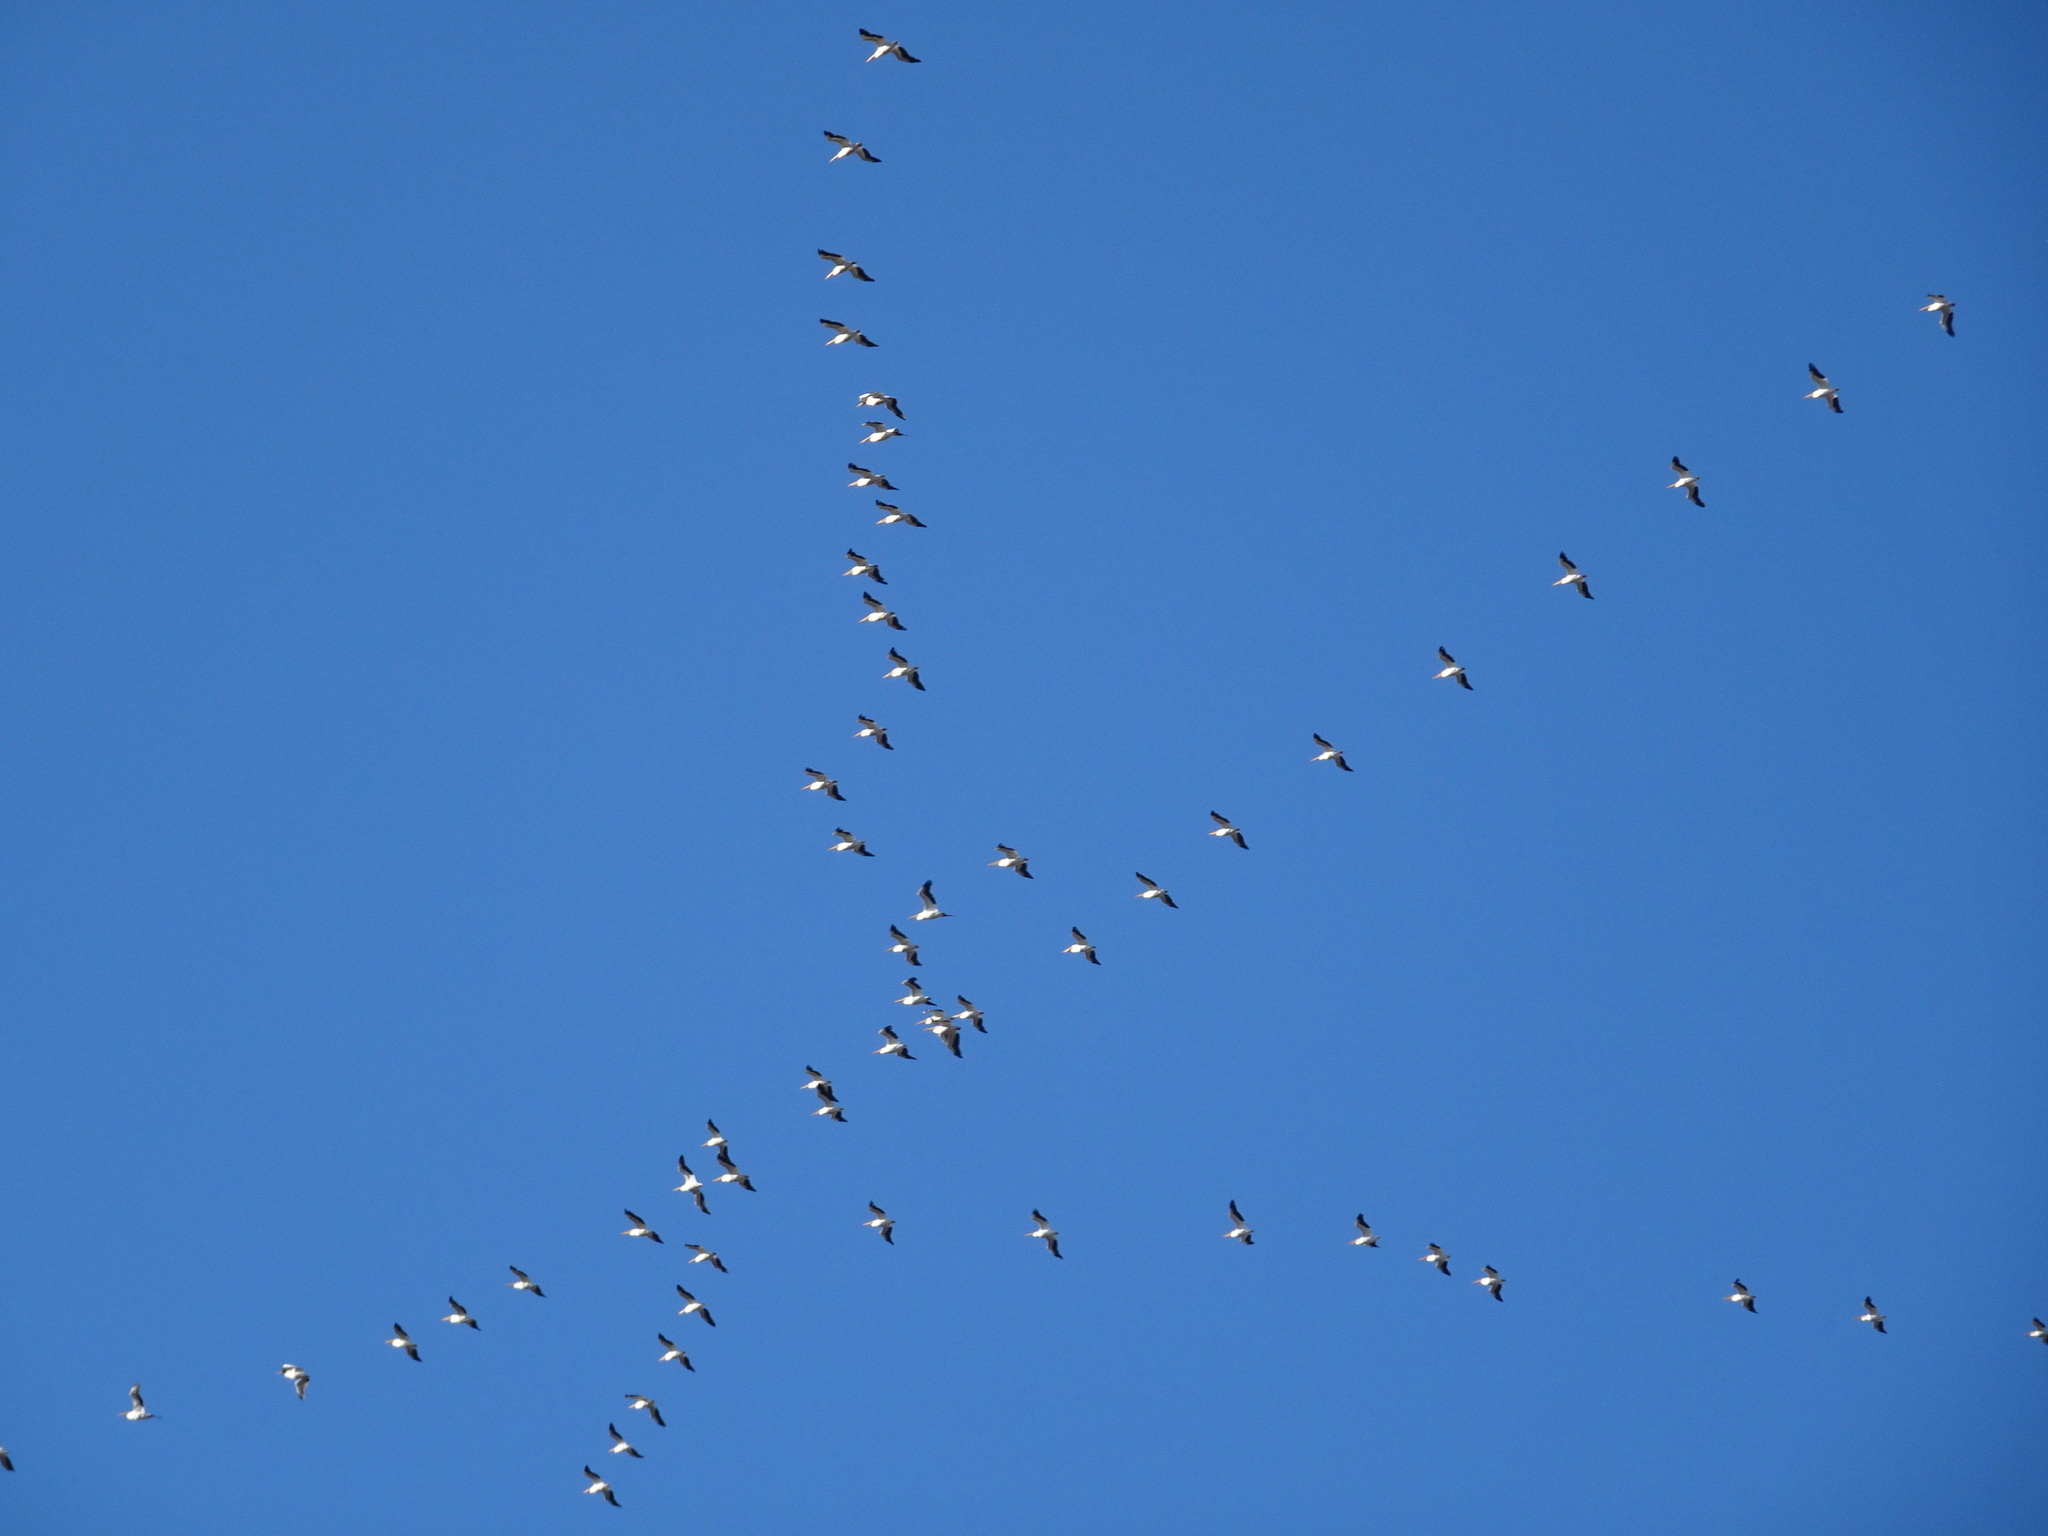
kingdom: Animalia
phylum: Chordata
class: Aves
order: Pelecaniformes
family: Pelecanidae
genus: Pelecanus
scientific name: Pelecanus erythrorhynchos
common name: American white pelican
